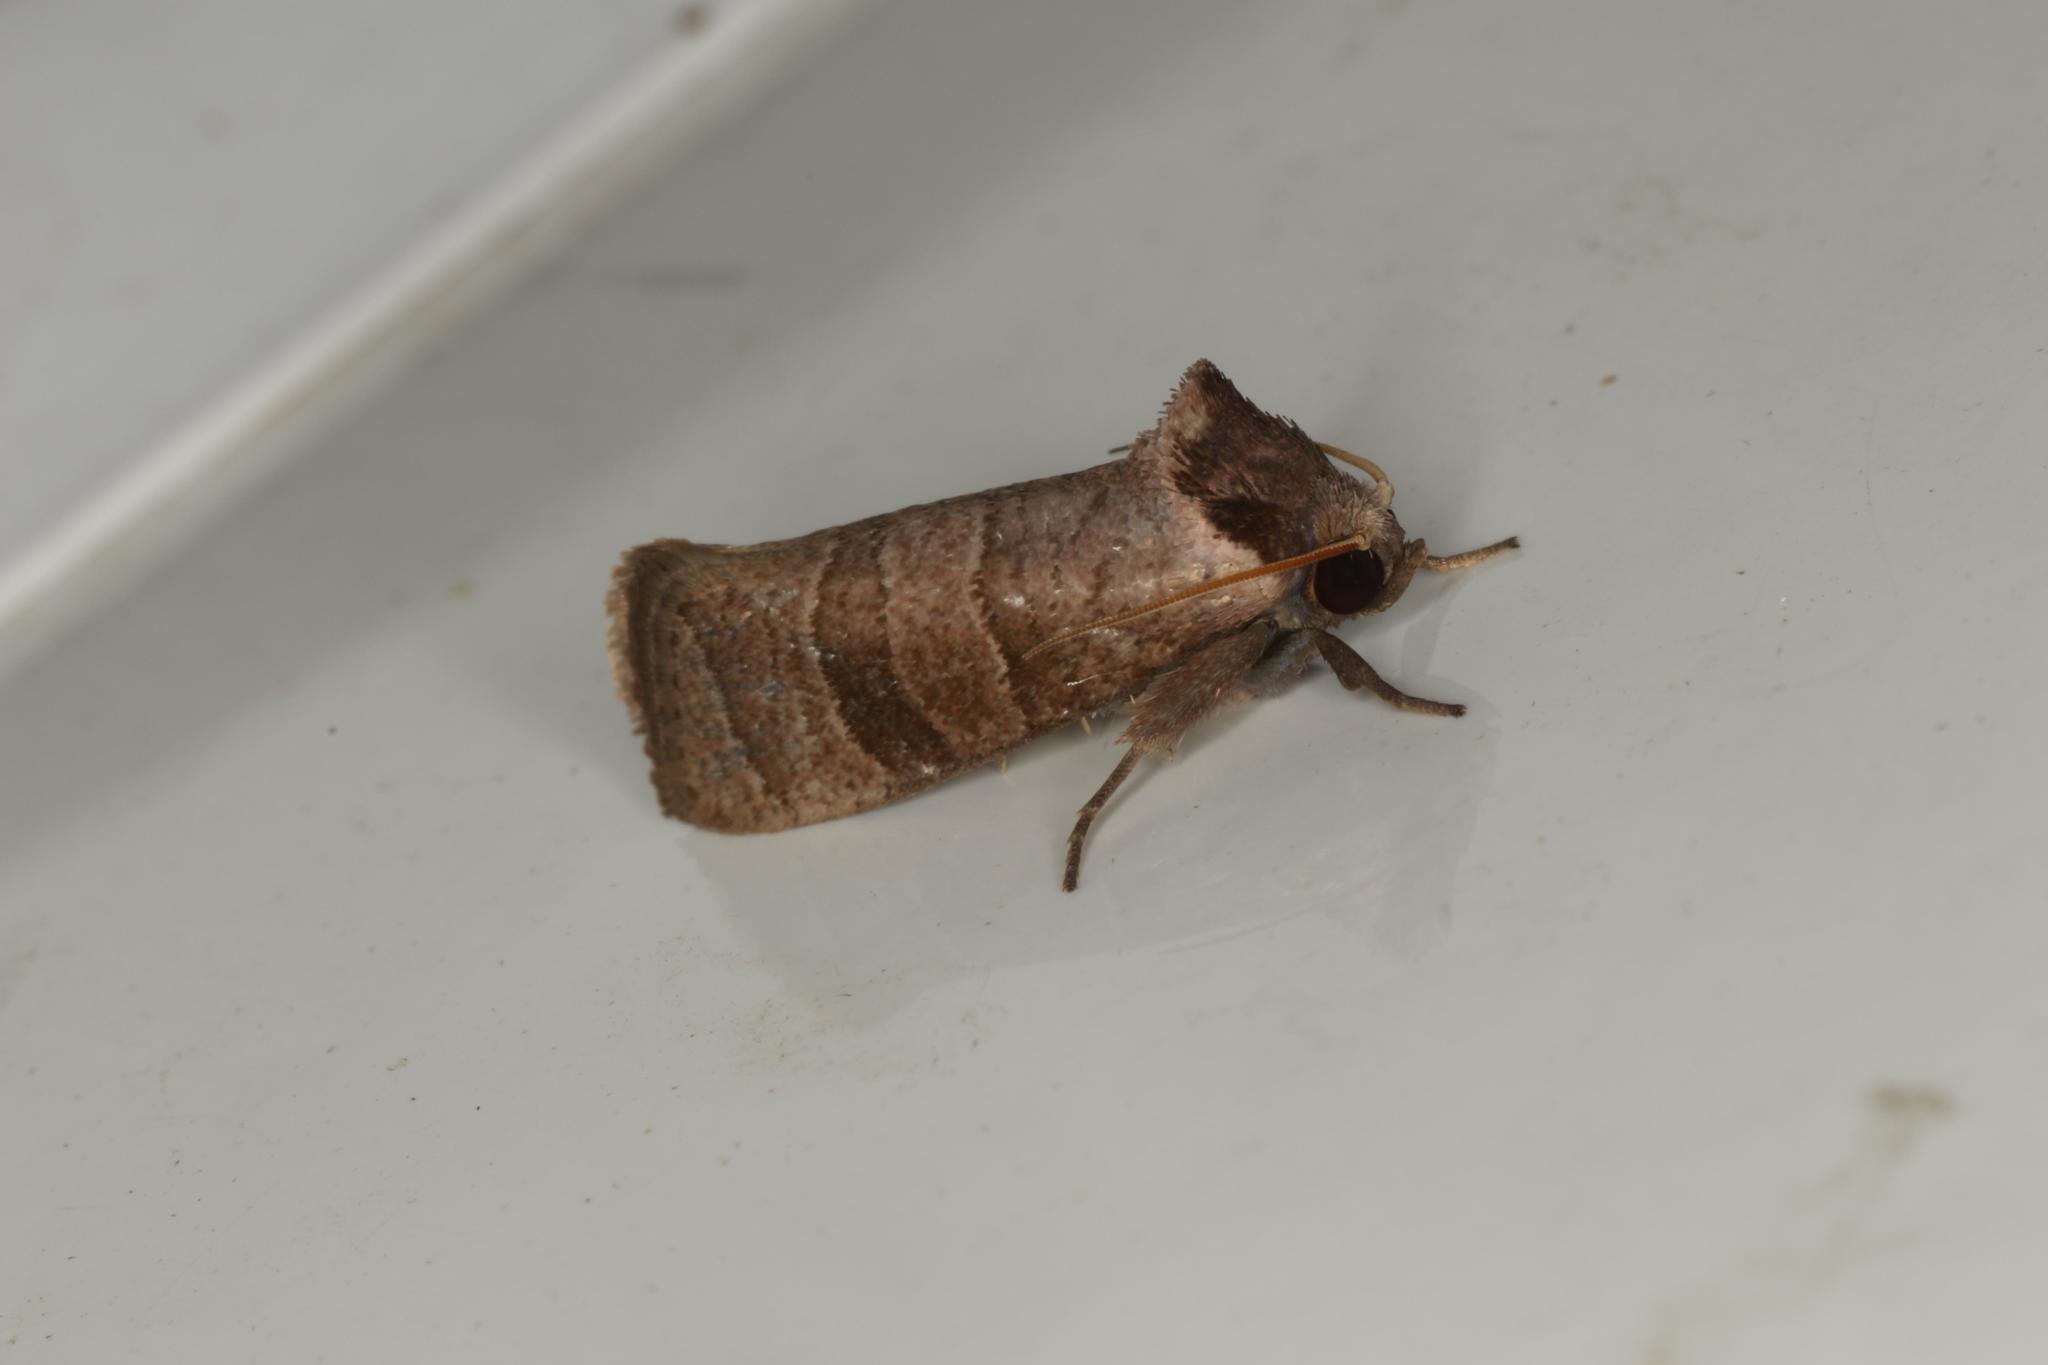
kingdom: Animalia
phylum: Arthropoda
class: Insecta
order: Lepidoptera
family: Cossidae
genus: Eusthenica
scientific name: Eusthenica treicleiota
